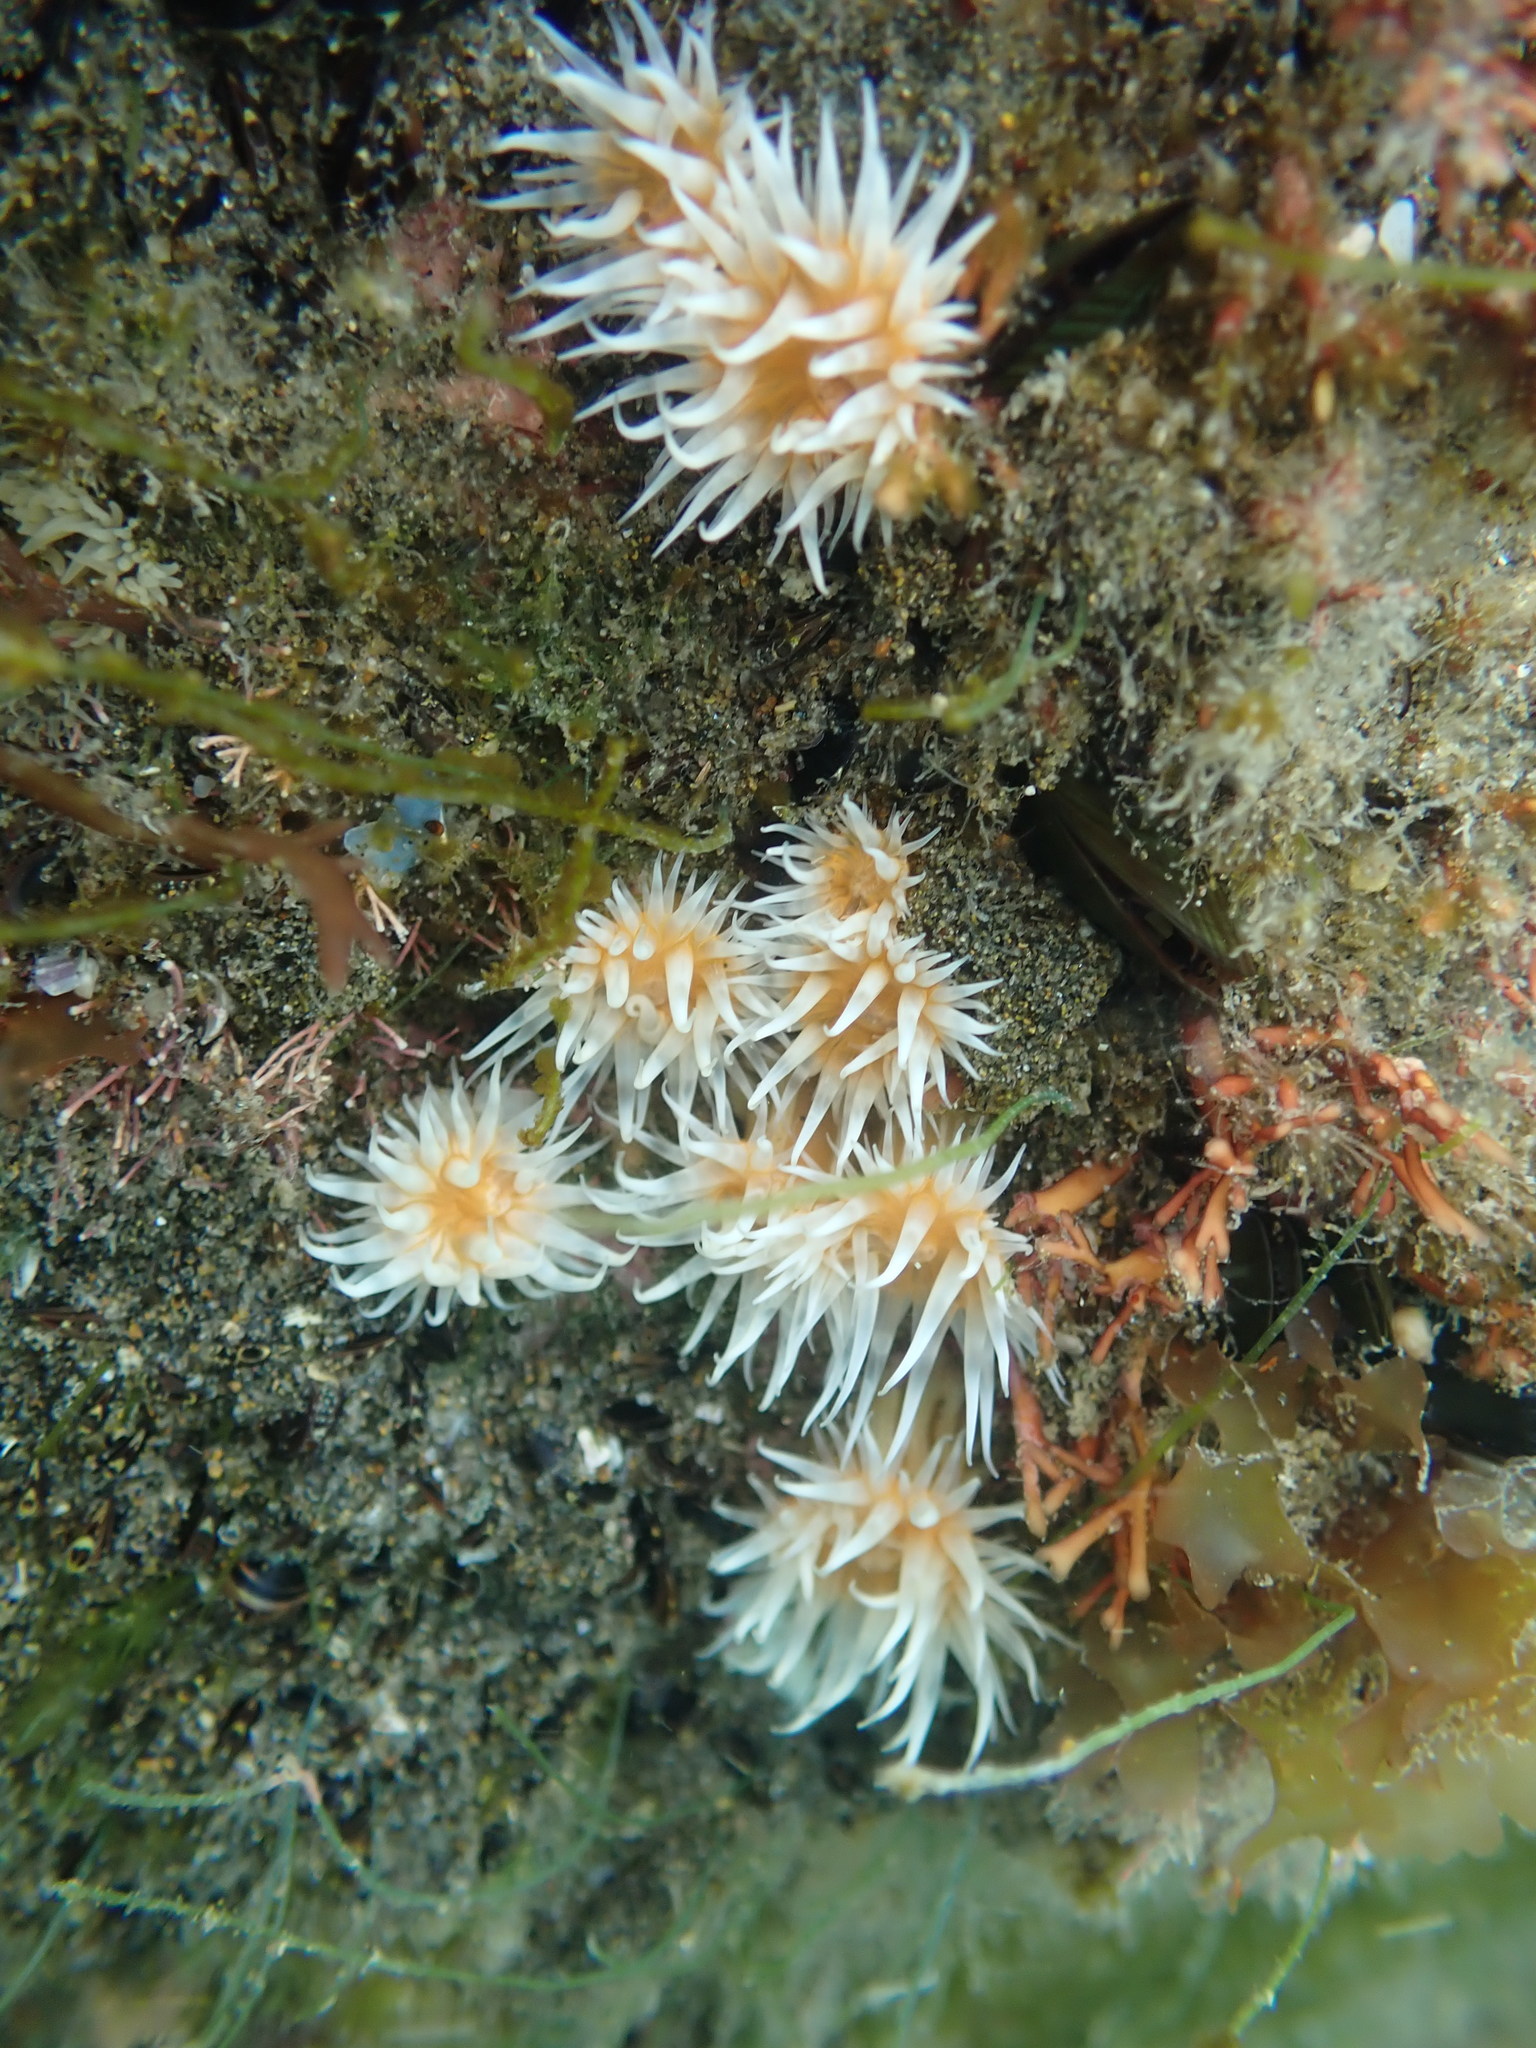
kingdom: Animalia
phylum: Cnidaria
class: Anthozoa
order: Actiniaria
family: Sagartiidae
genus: Anthothoe
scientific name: Anthothoe albocincta
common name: Orange striped anemone
